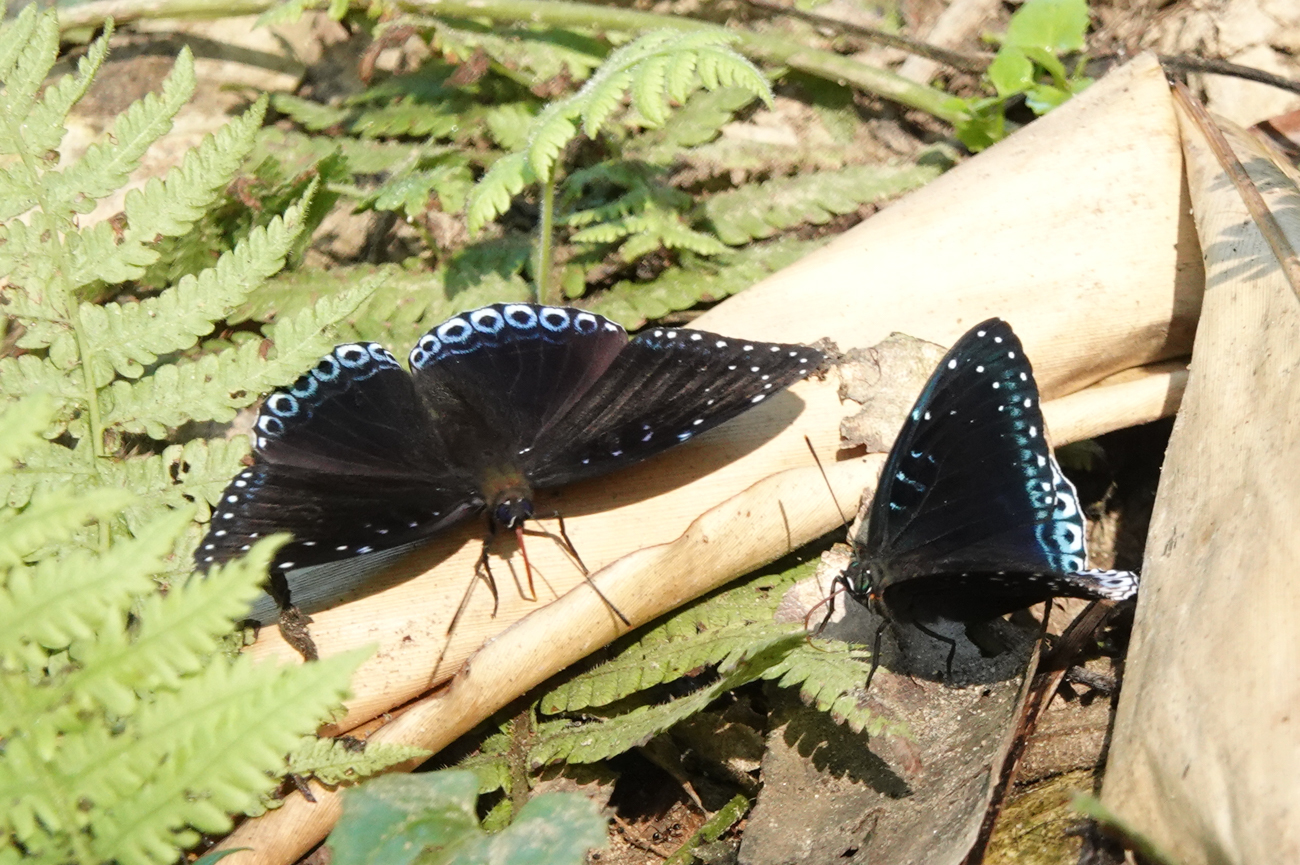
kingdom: Animalia
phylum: Arthropoda
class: Insecta
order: Lepidoptera
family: Nymphalidae
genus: Stibochiona
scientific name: Stibochiona nicea
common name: Popinjay
